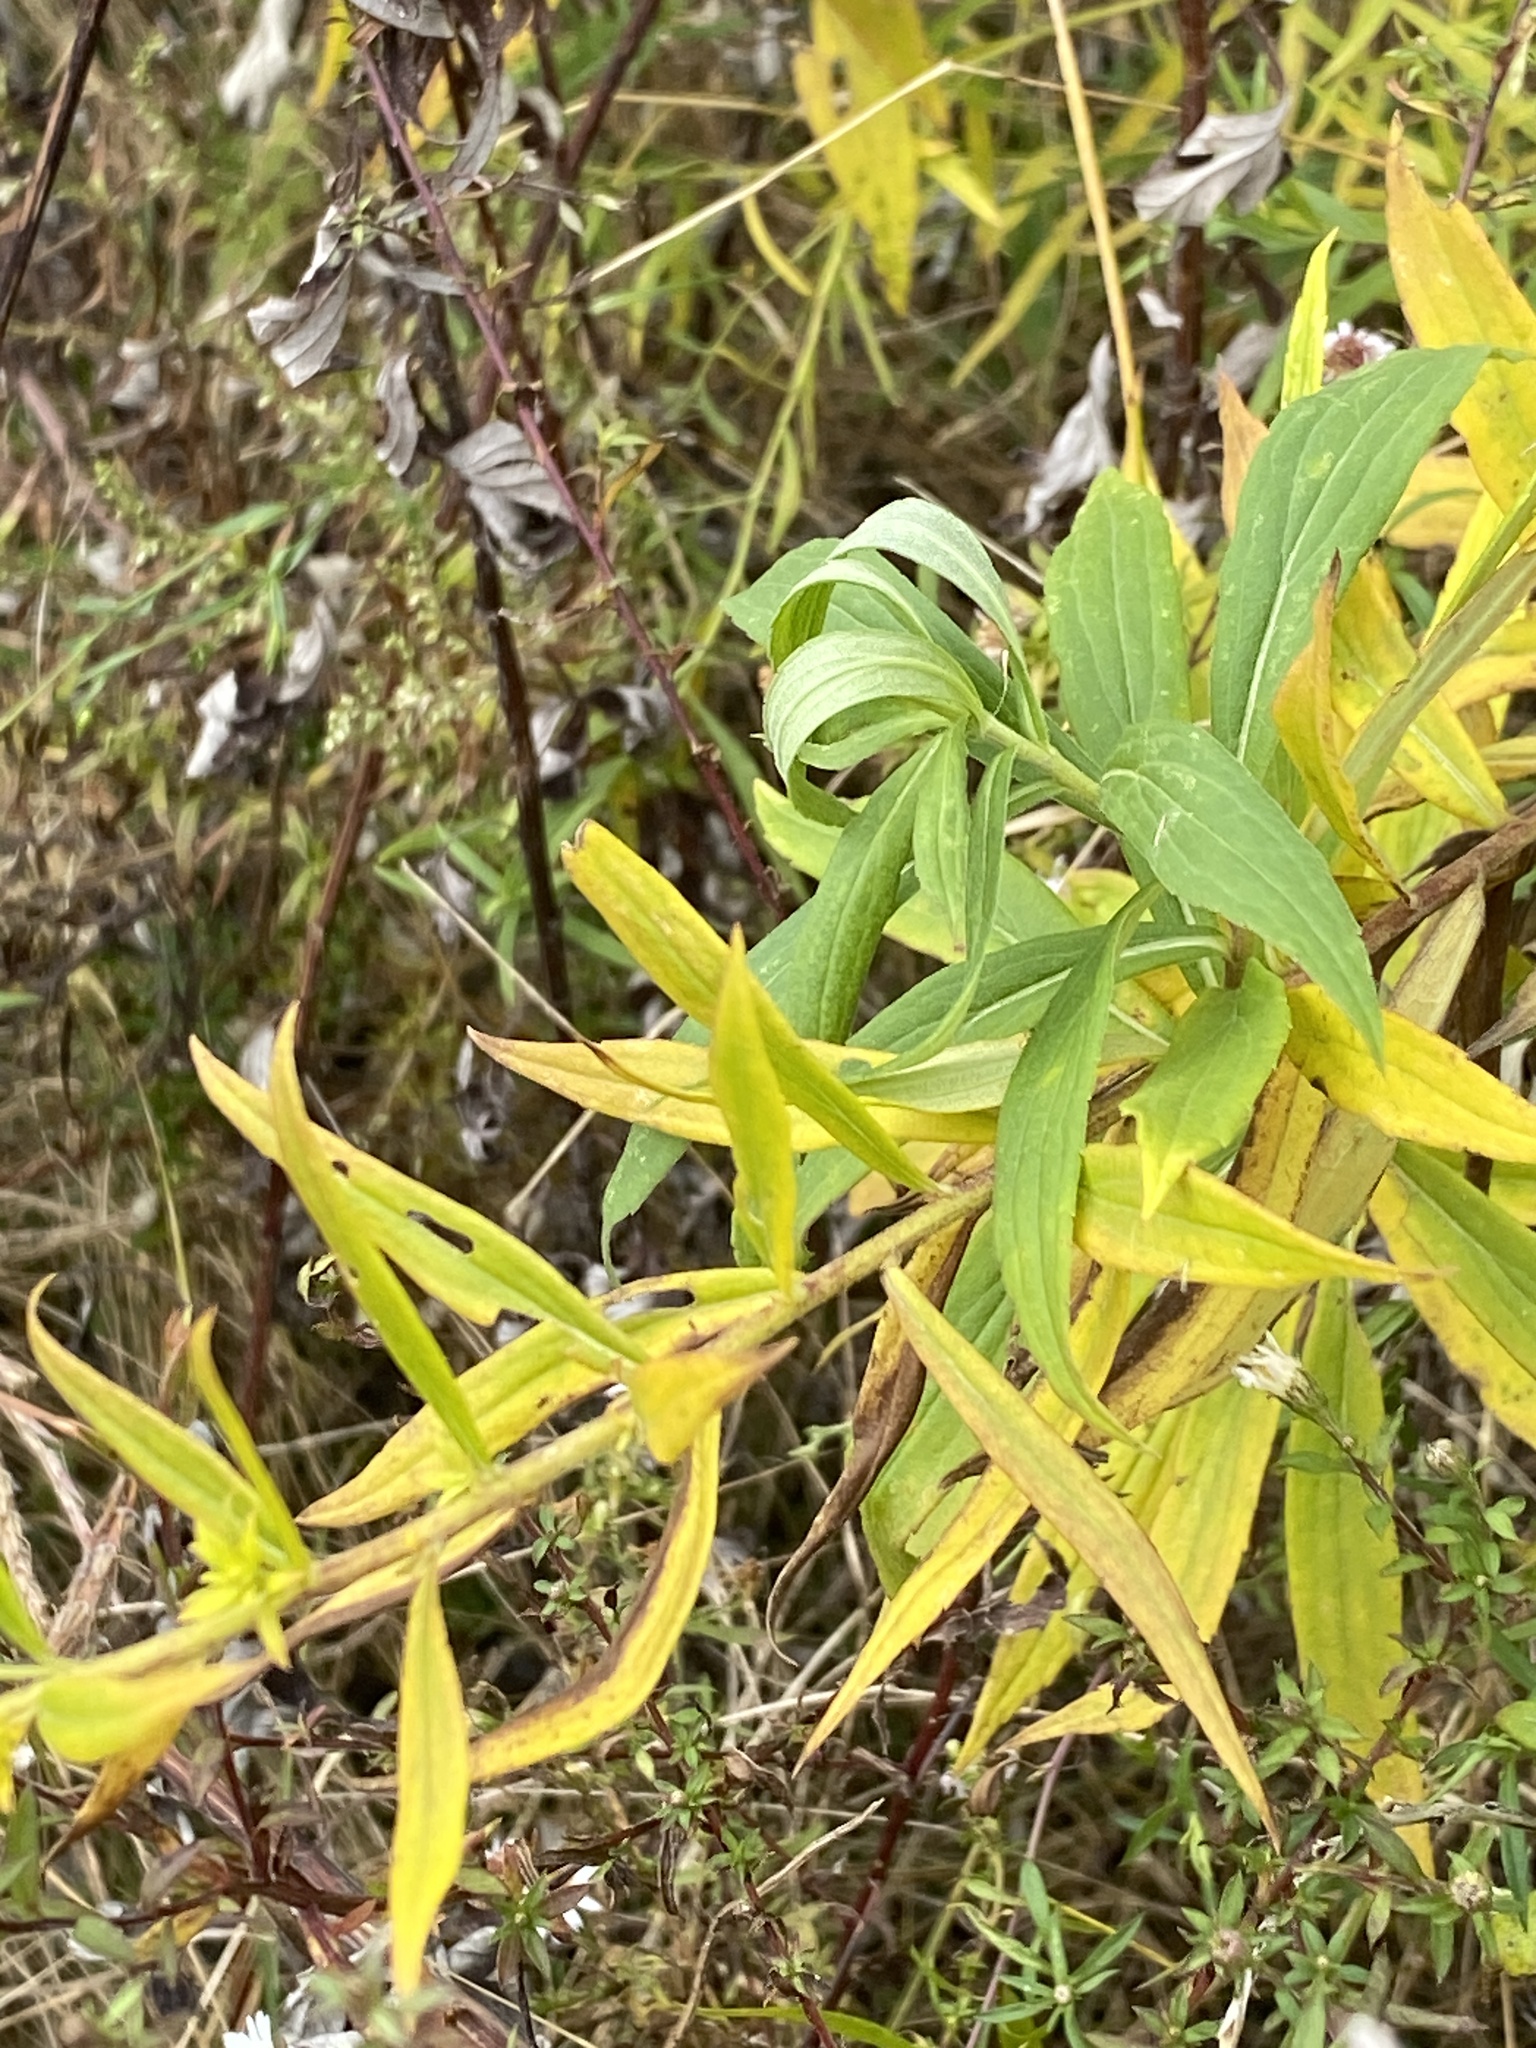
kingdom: Plantae
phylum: Tracheophyta
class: Magnoliopsida
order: Asterales
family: Asteraceae
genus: Solidago
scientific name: Solidago altissima
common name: Late goldenrod
